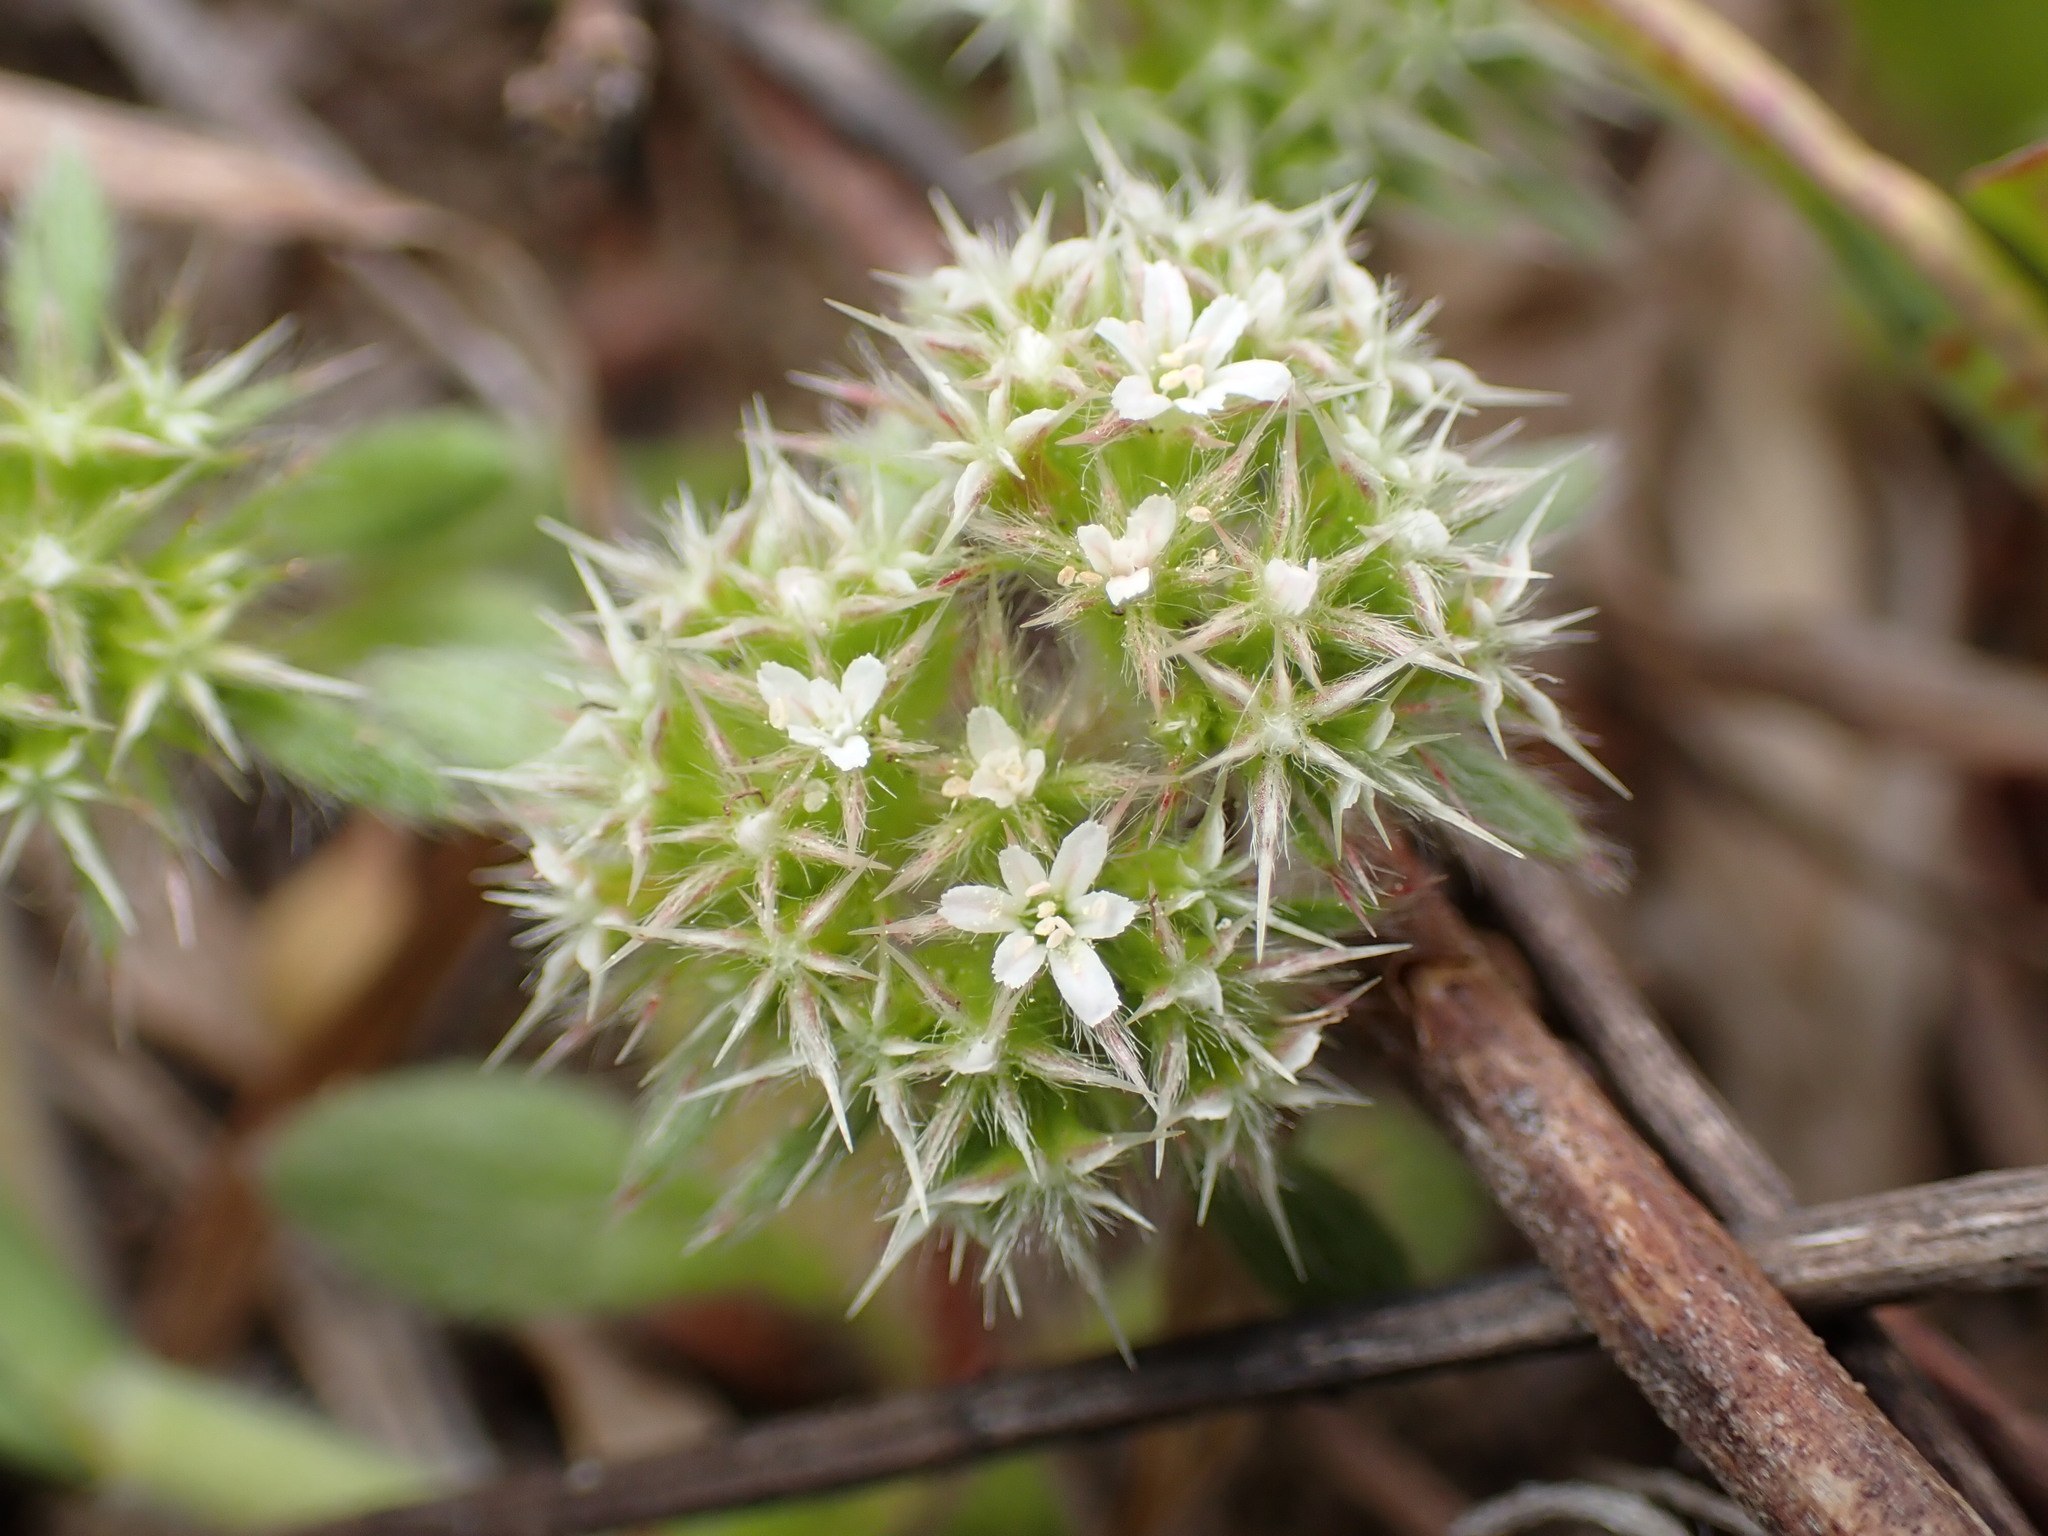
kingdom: Plantae
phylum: Tracheophyta
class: Magnoliopsida
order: Caryophyllales
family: Polygonaceae
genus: Chorizanthe
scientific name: Chorizanthe howellii
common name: Howell's spineflower
